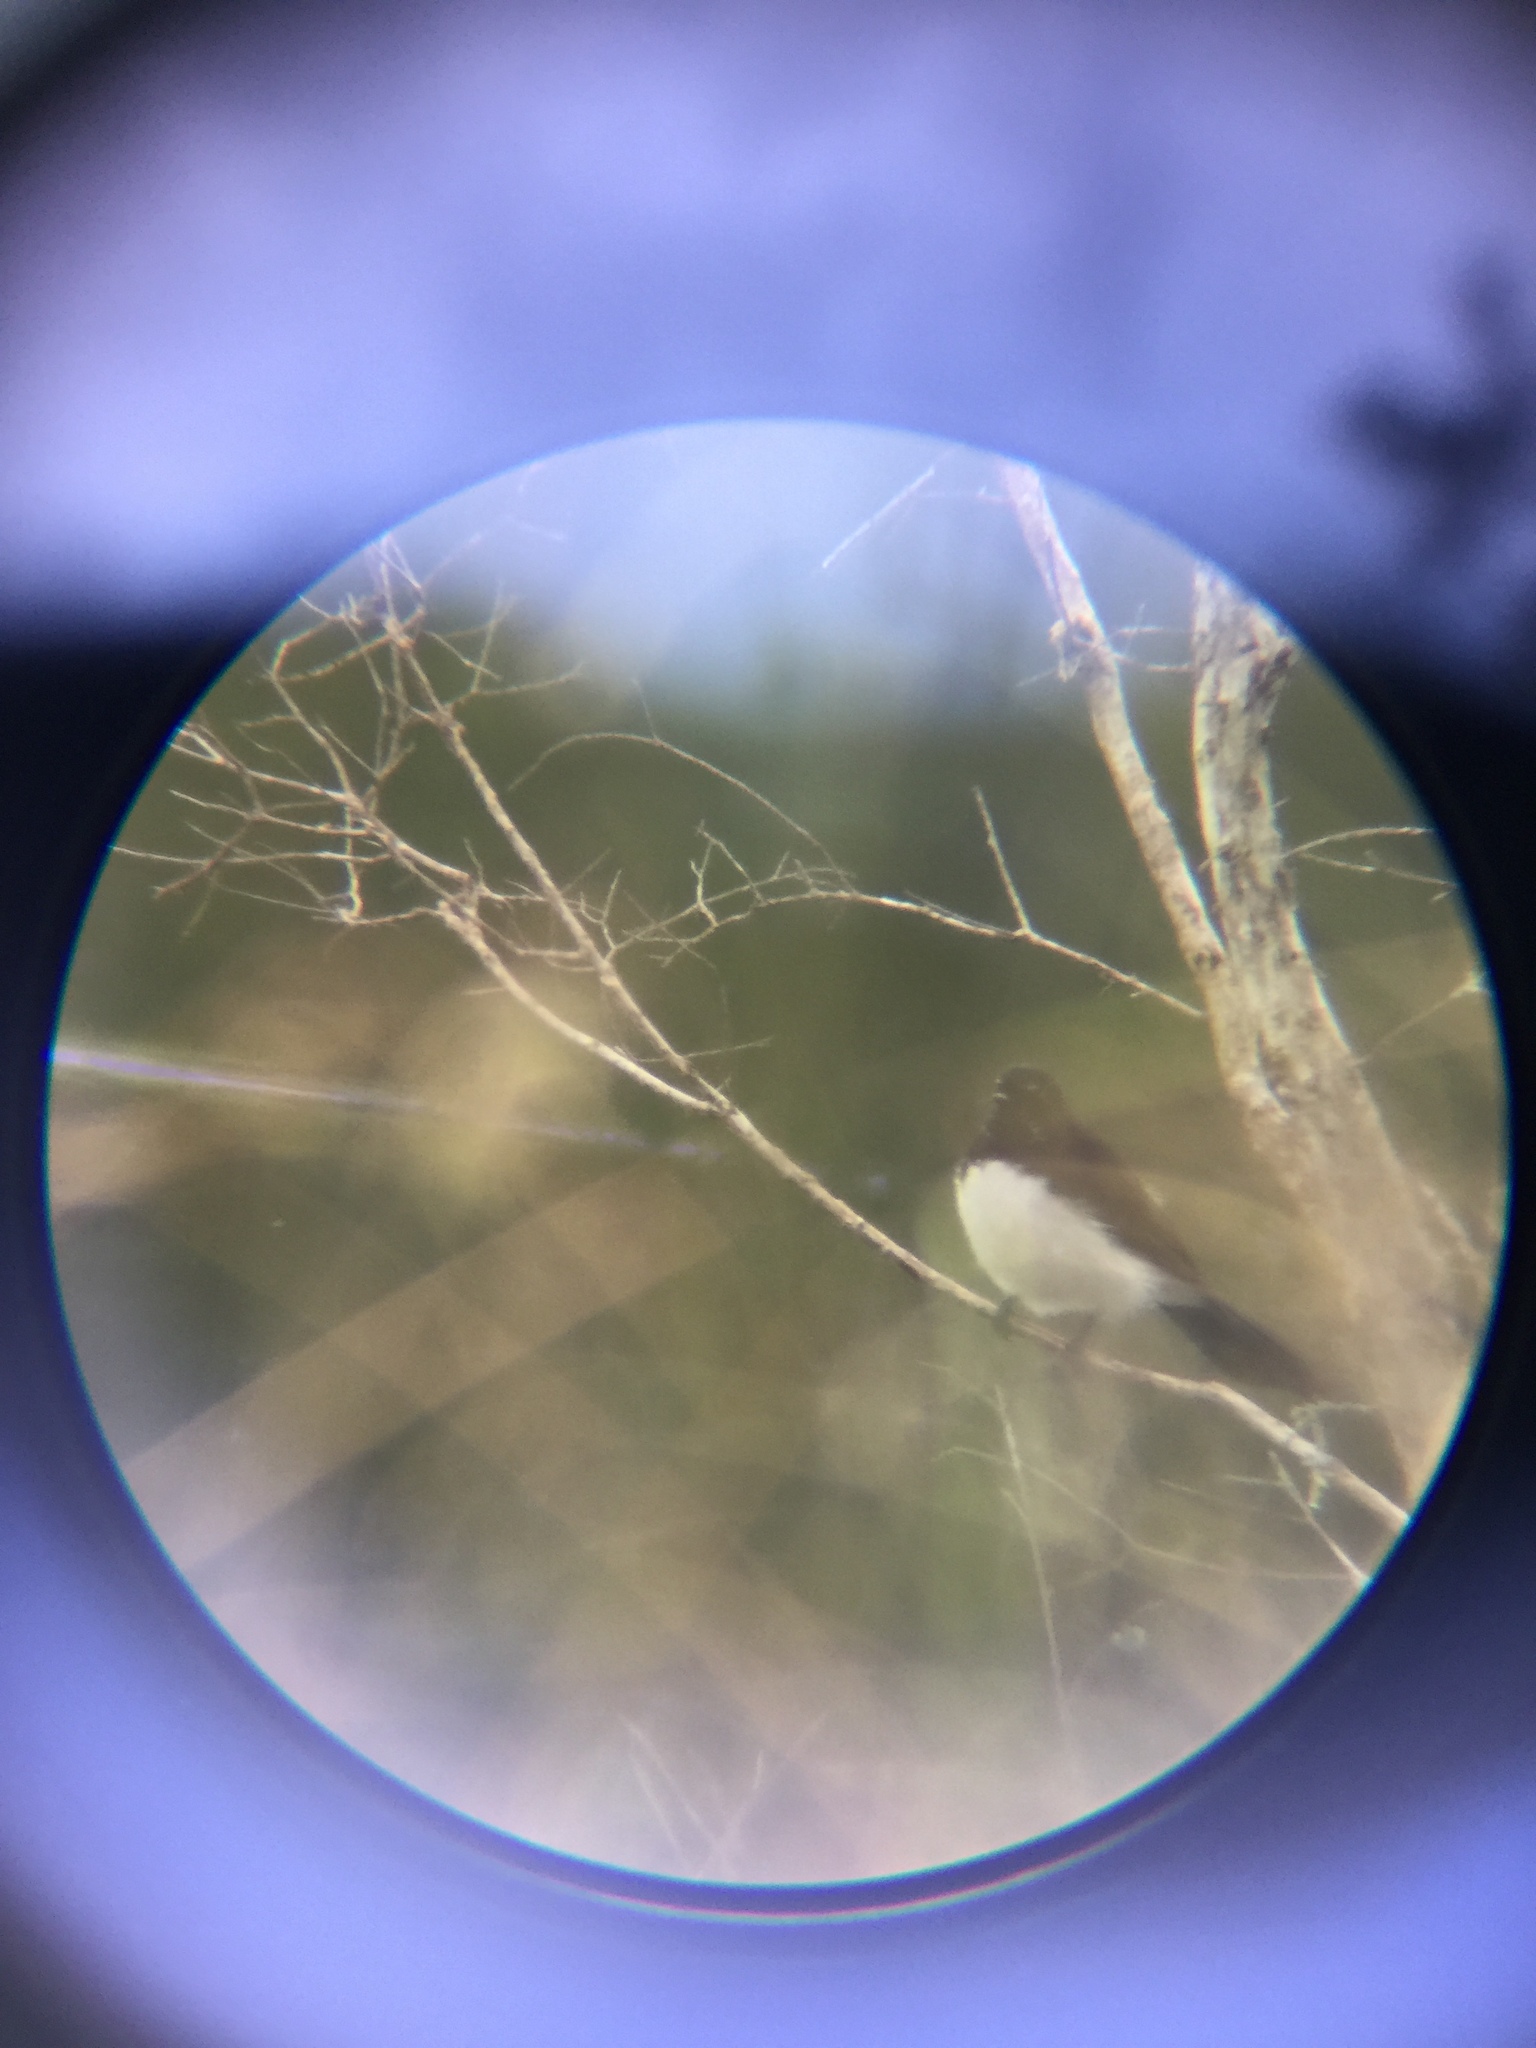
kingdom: Animalia
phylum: Chordata
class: Aves
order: Passeriformes
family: Rhipiduridae
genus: Rhipidura
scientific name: Rhipidura leucophrys
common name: Willie wagtail
